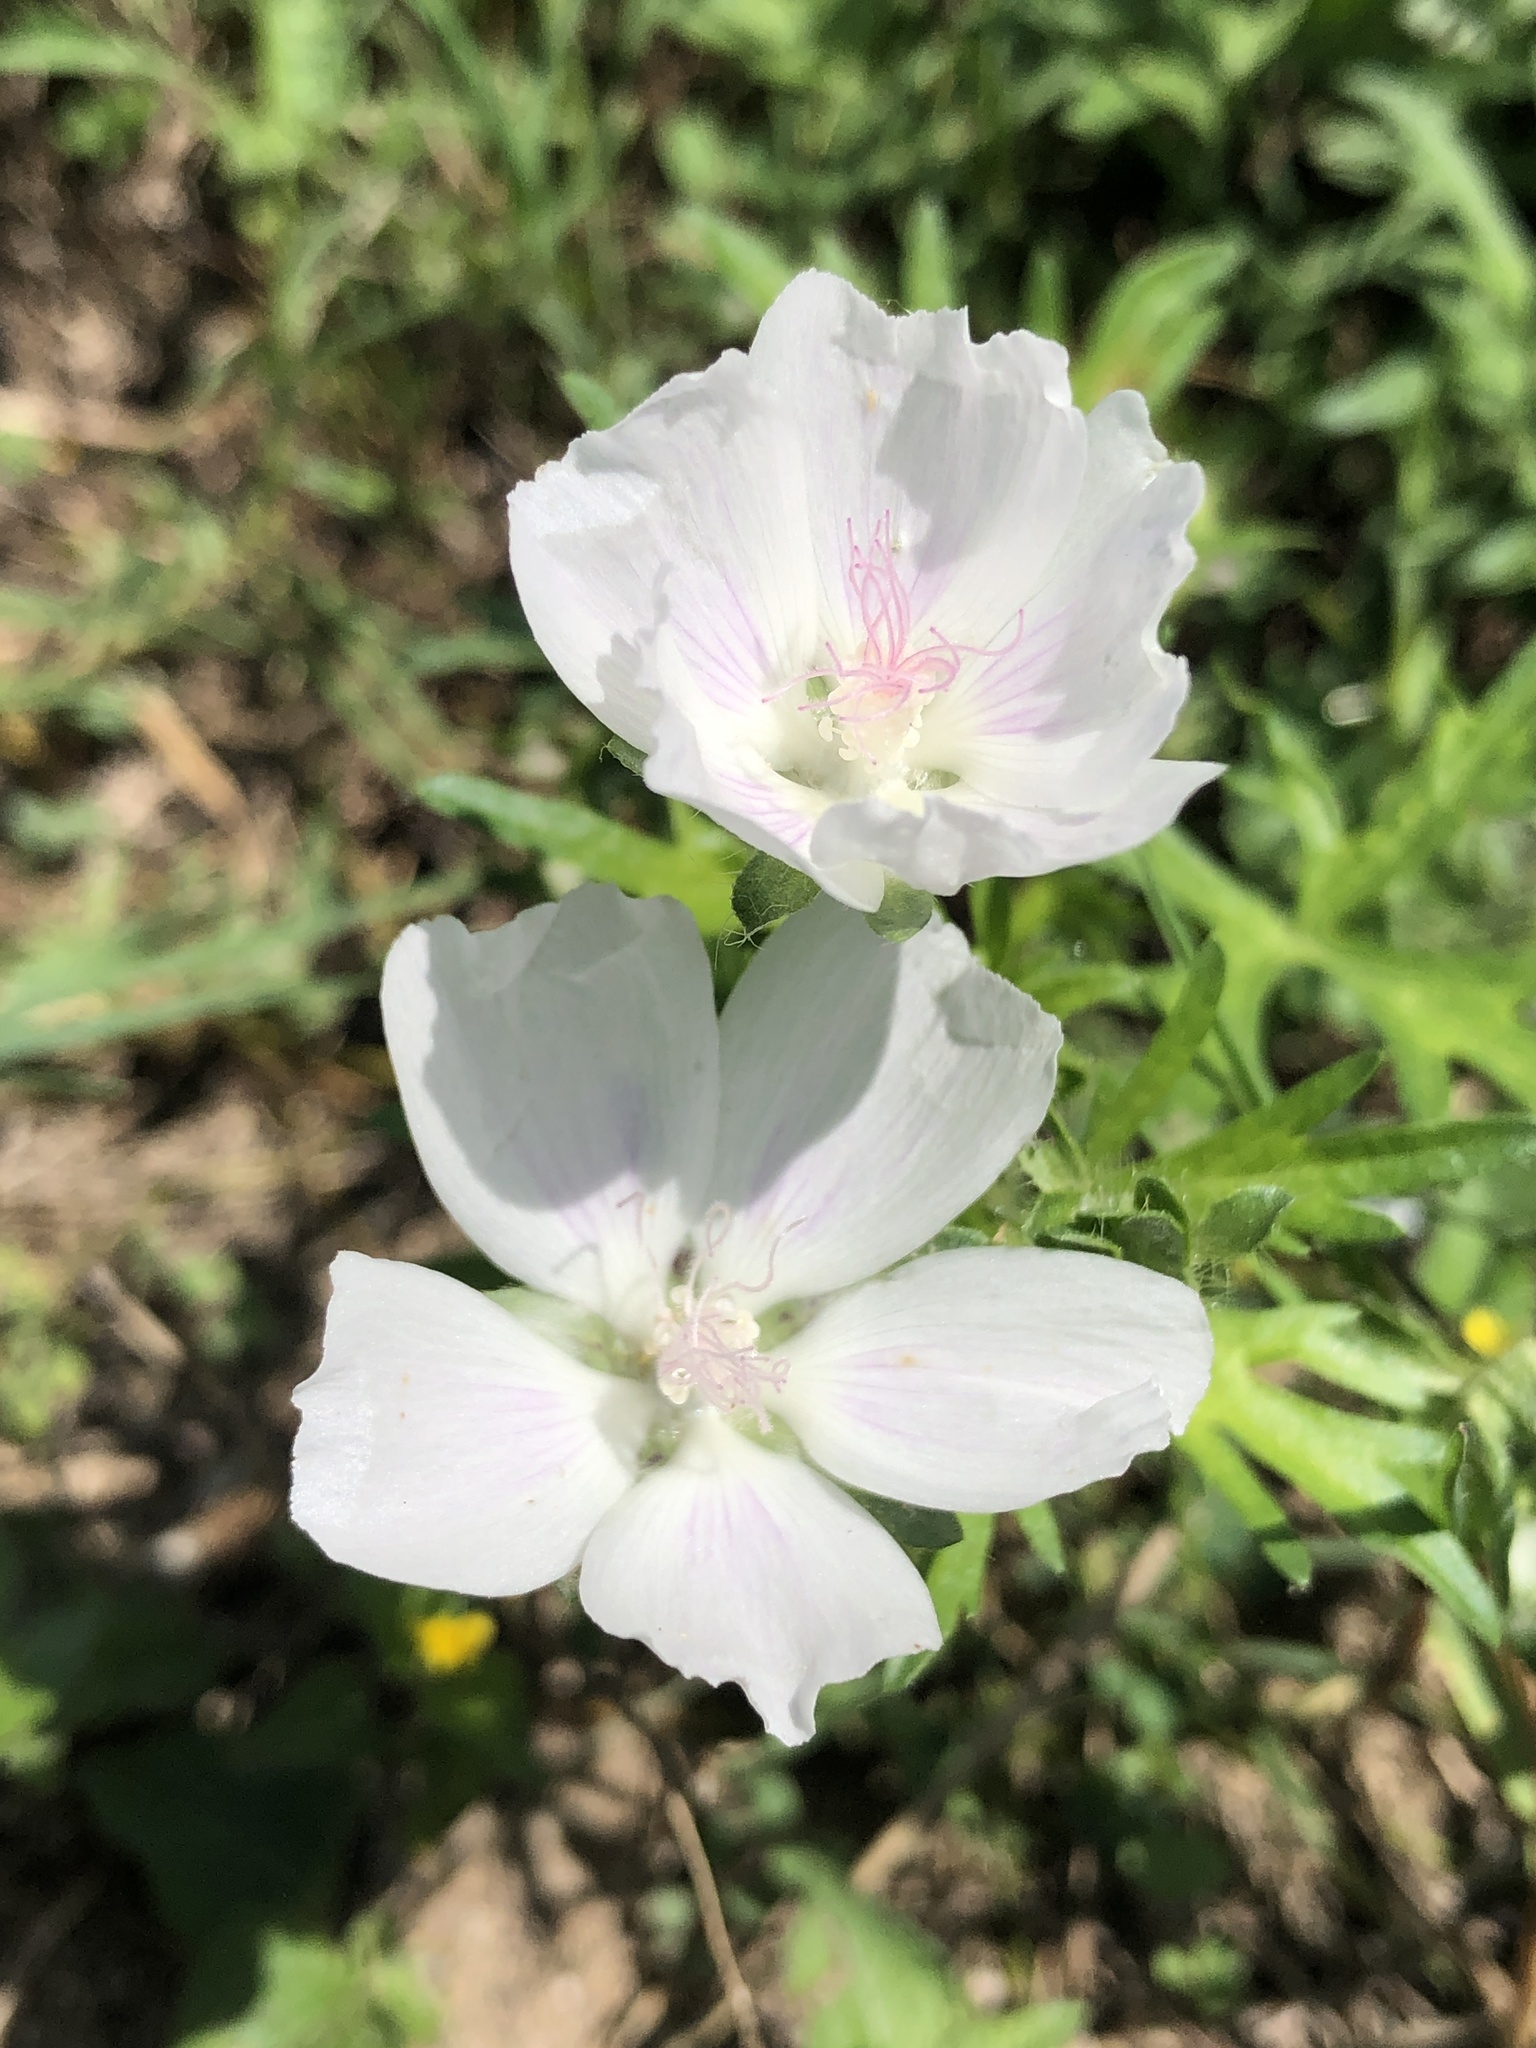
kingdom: Plantae
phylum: Tracheophyta
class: Magnoliopsida
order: Malvales
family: Malvaceae
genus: Callirhoe
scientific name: Callirhoe involucrata
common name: Purple poppy-mallow
